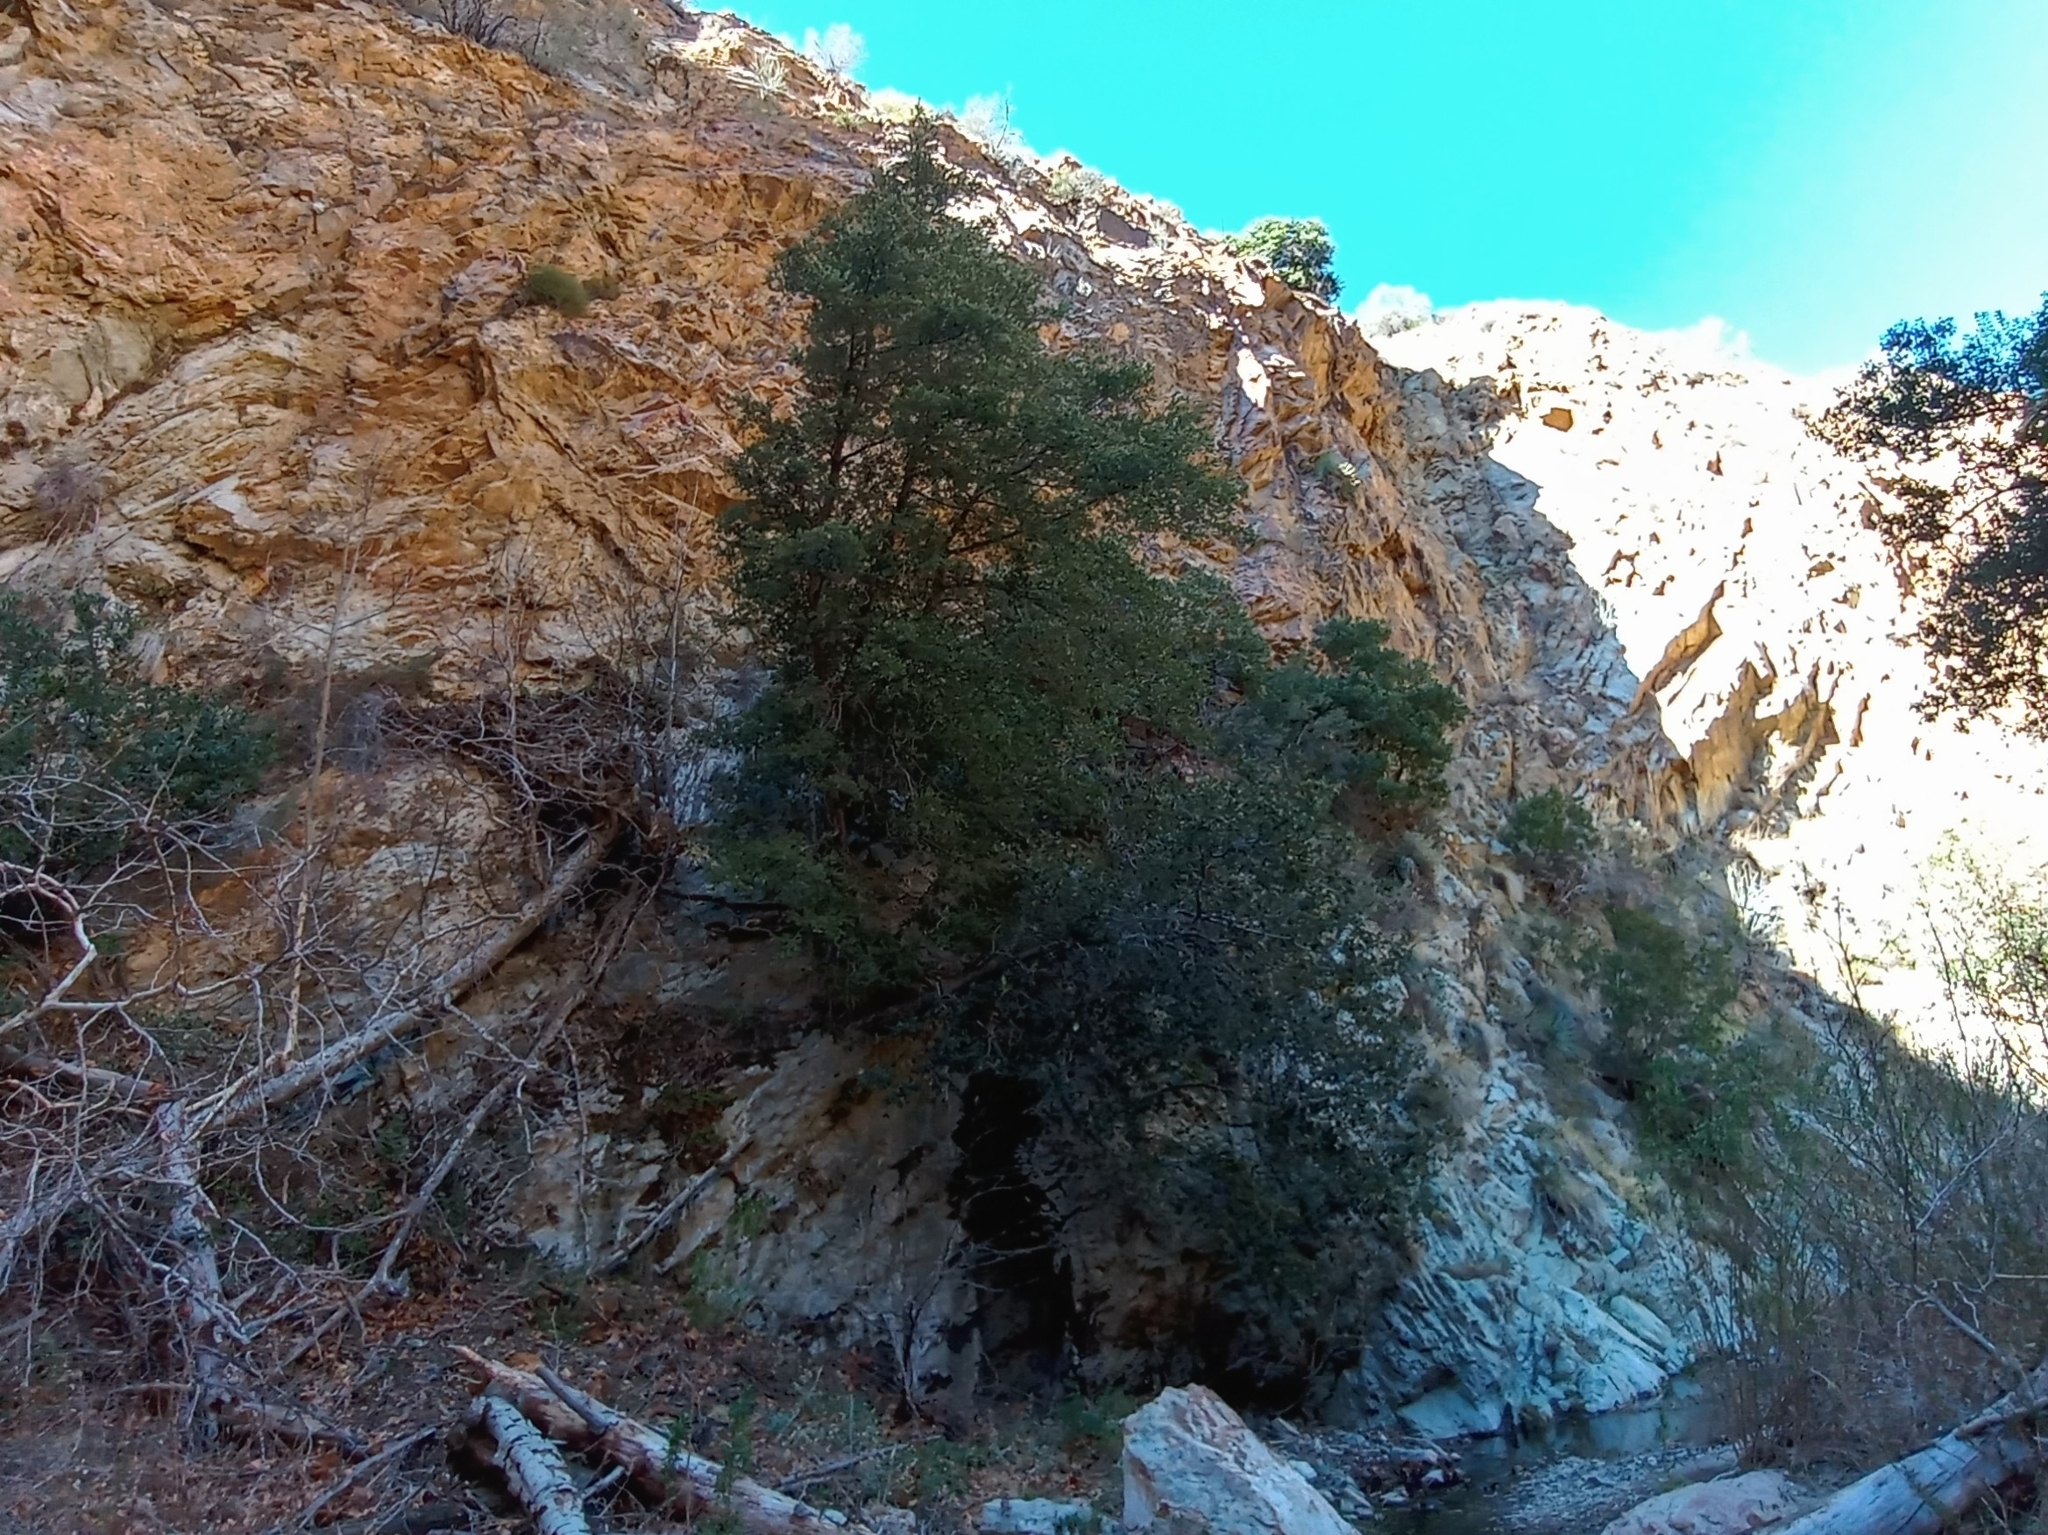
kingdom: Plantae
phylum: Tracheophyta
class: Magnoliopsida
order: Fagales
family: Fagaceae
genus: Quercus
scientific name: Quercus wislizeni
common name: Interior live oak
